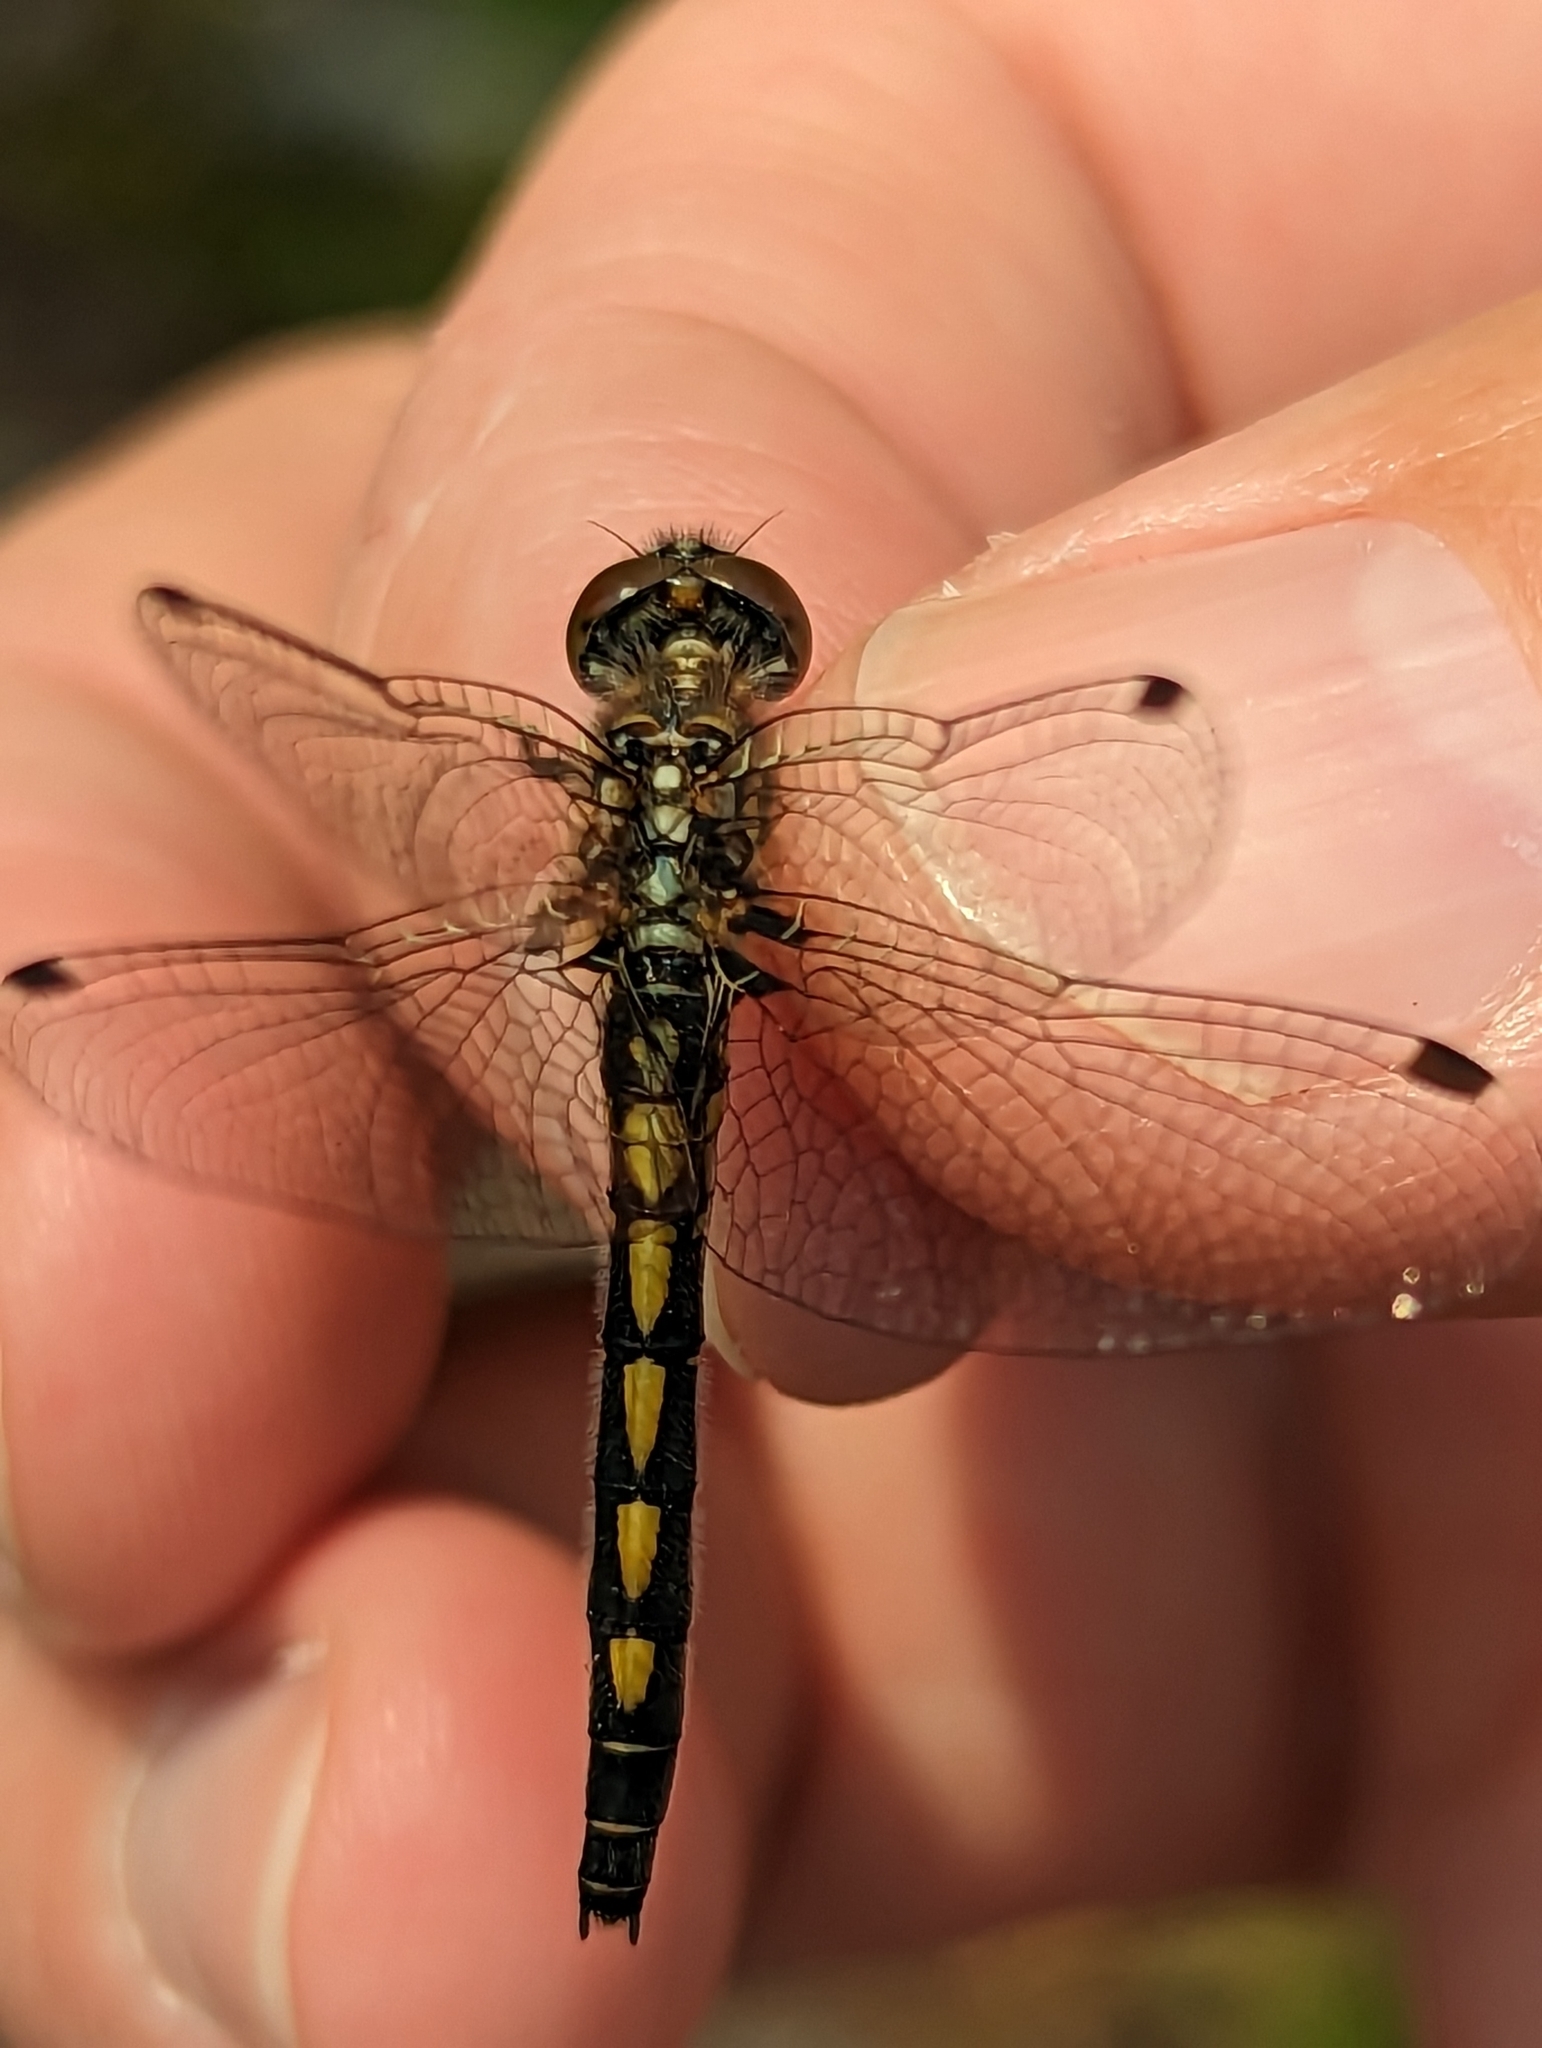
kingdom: Animalia
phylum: Arthropoda
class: Insecta
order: Odonata
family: Libellulidae
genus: Leucorrhinia
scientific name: Leucorrhinia hudsonica
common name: Hudsonian whiteface
